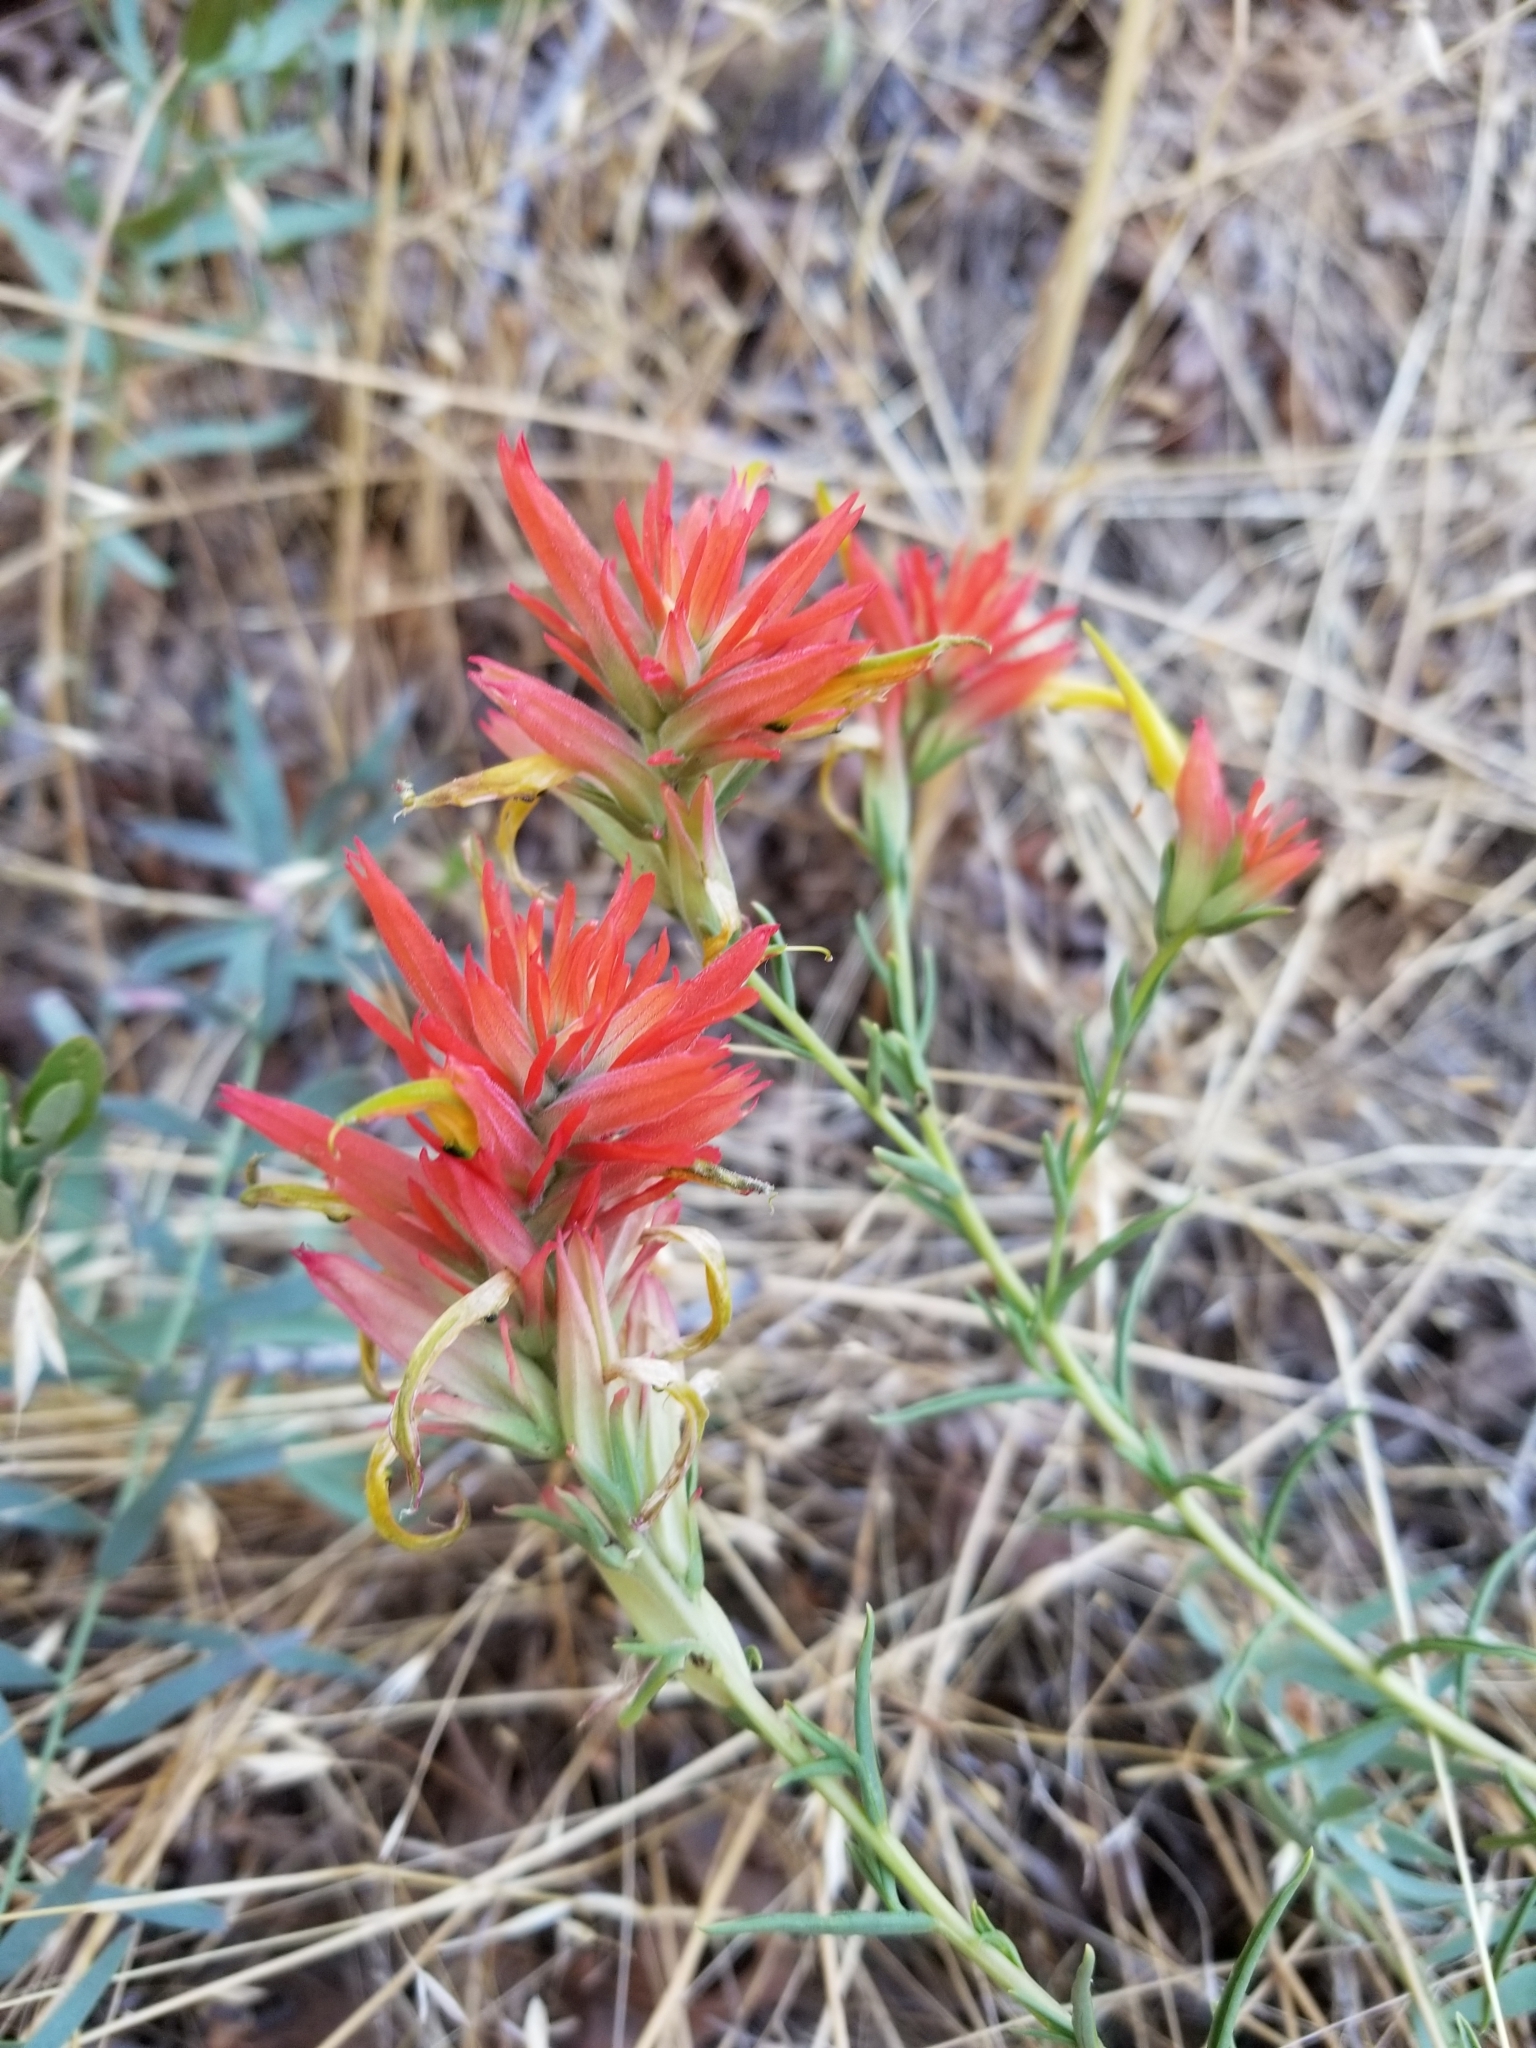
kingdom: Plantae
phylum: Tracheophyta
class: Magnoliopsida
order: Lamiales
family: Orobanchaceae
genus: Castilleja
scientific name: Castilleja linariifolia
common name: Wyoming paintbrush
